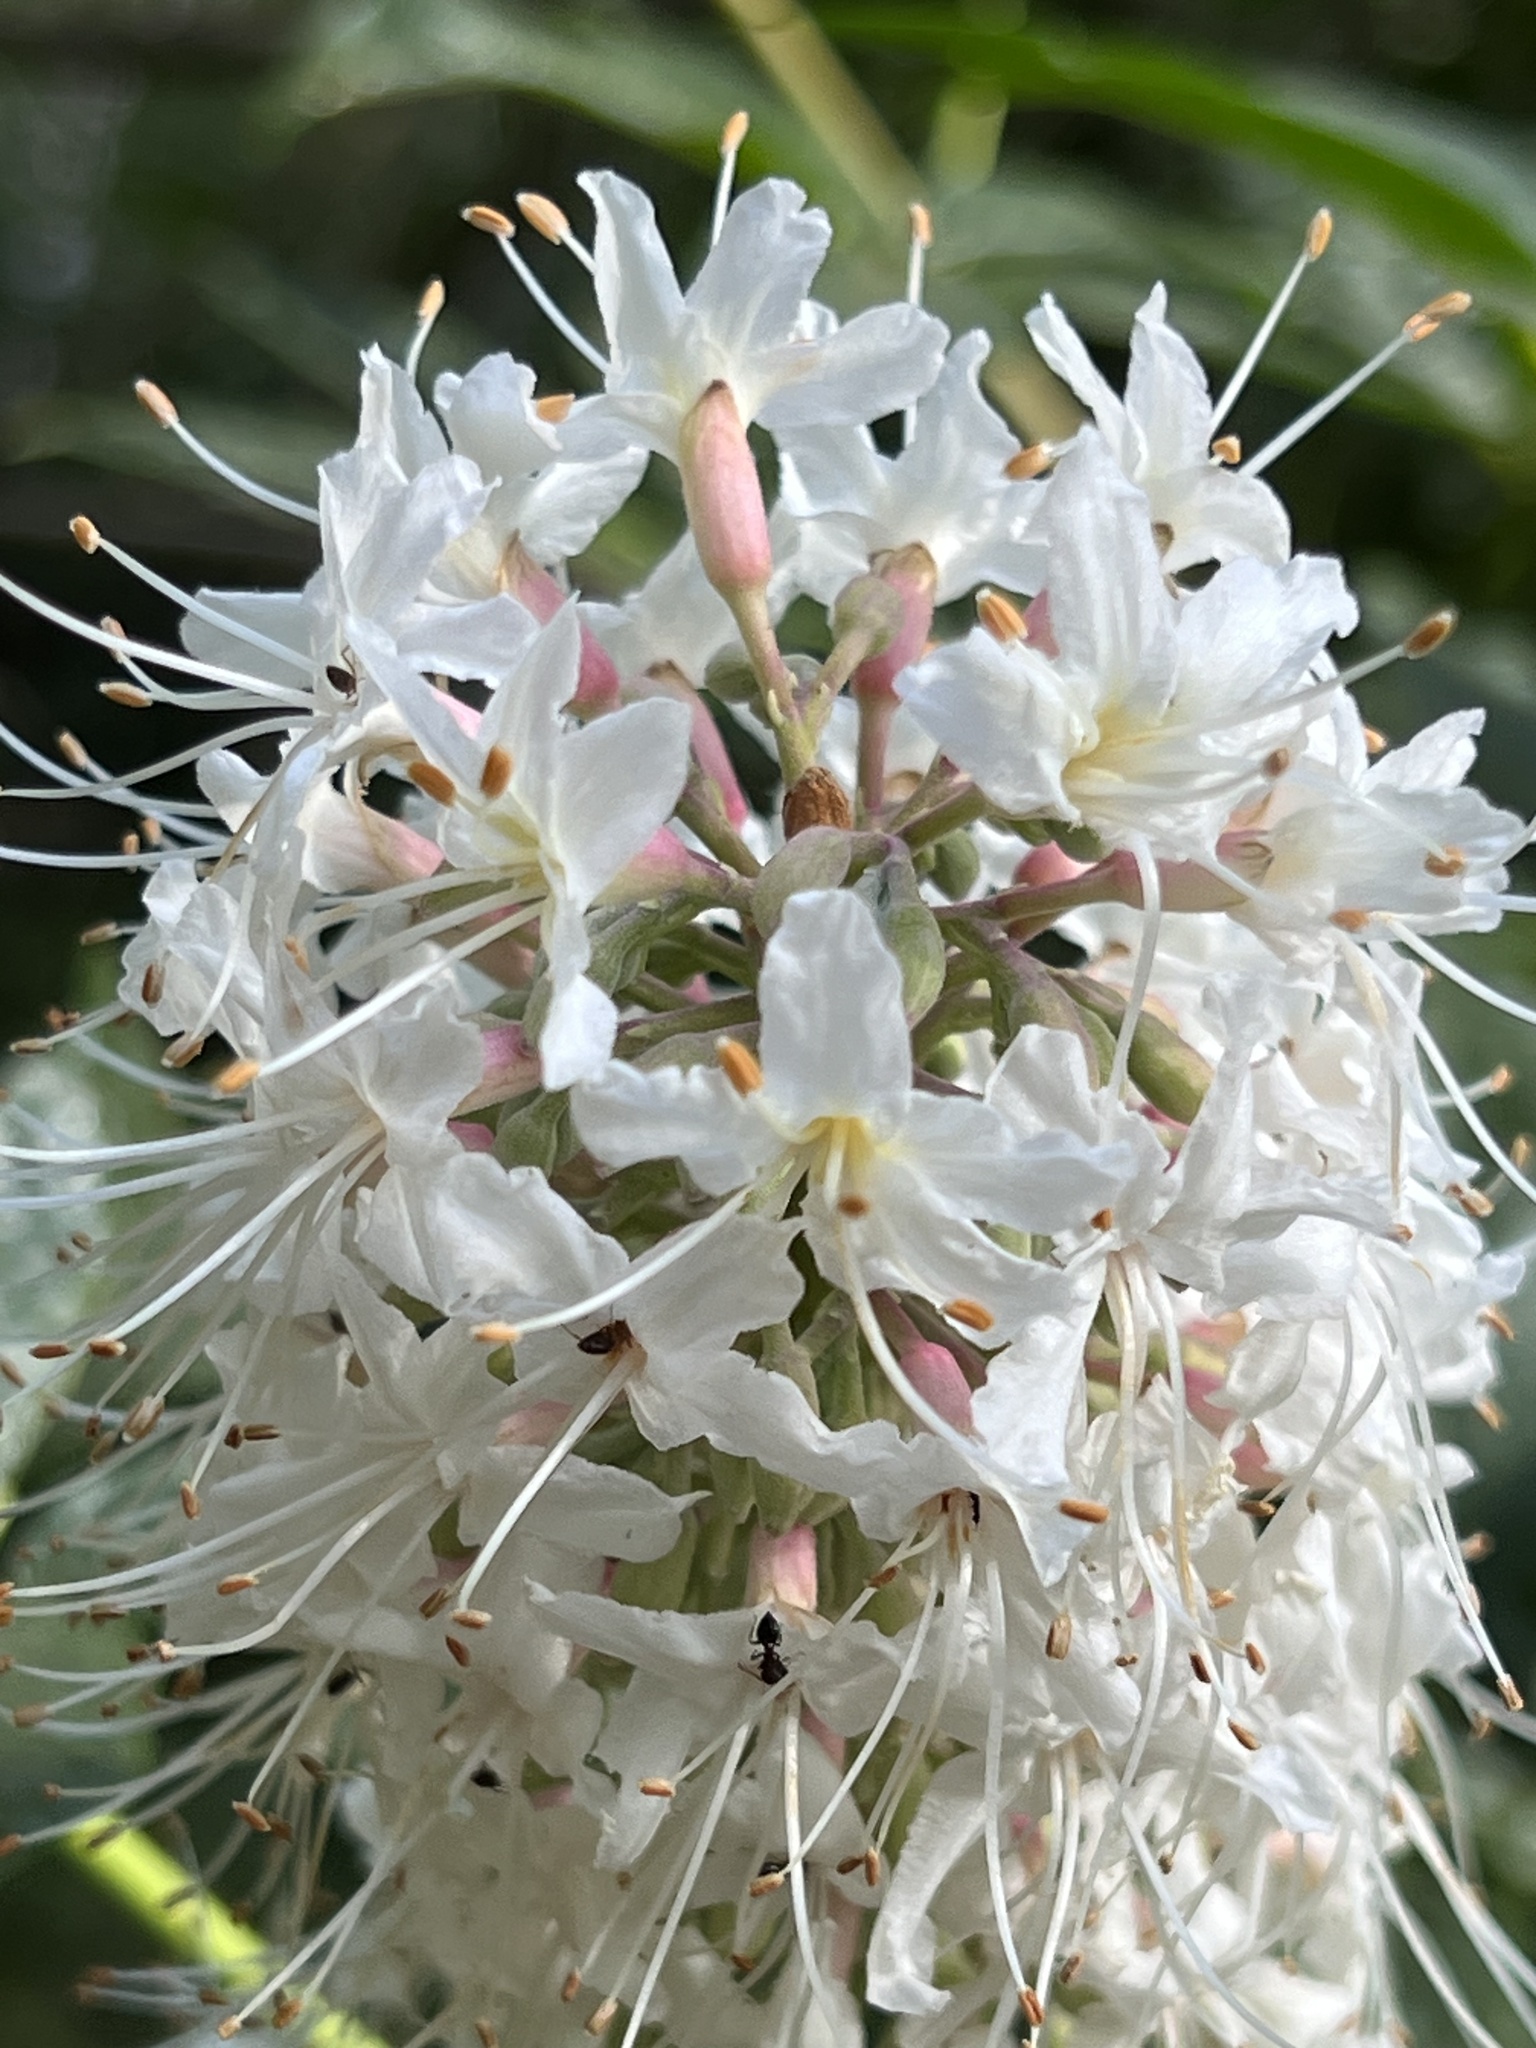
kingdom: Plantae
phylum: Tracheophyta
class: Magnoliopsida
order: Sapindales
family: Sapindaceae
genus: Aesculus
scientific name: Aesculus californica
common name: California buckeye
